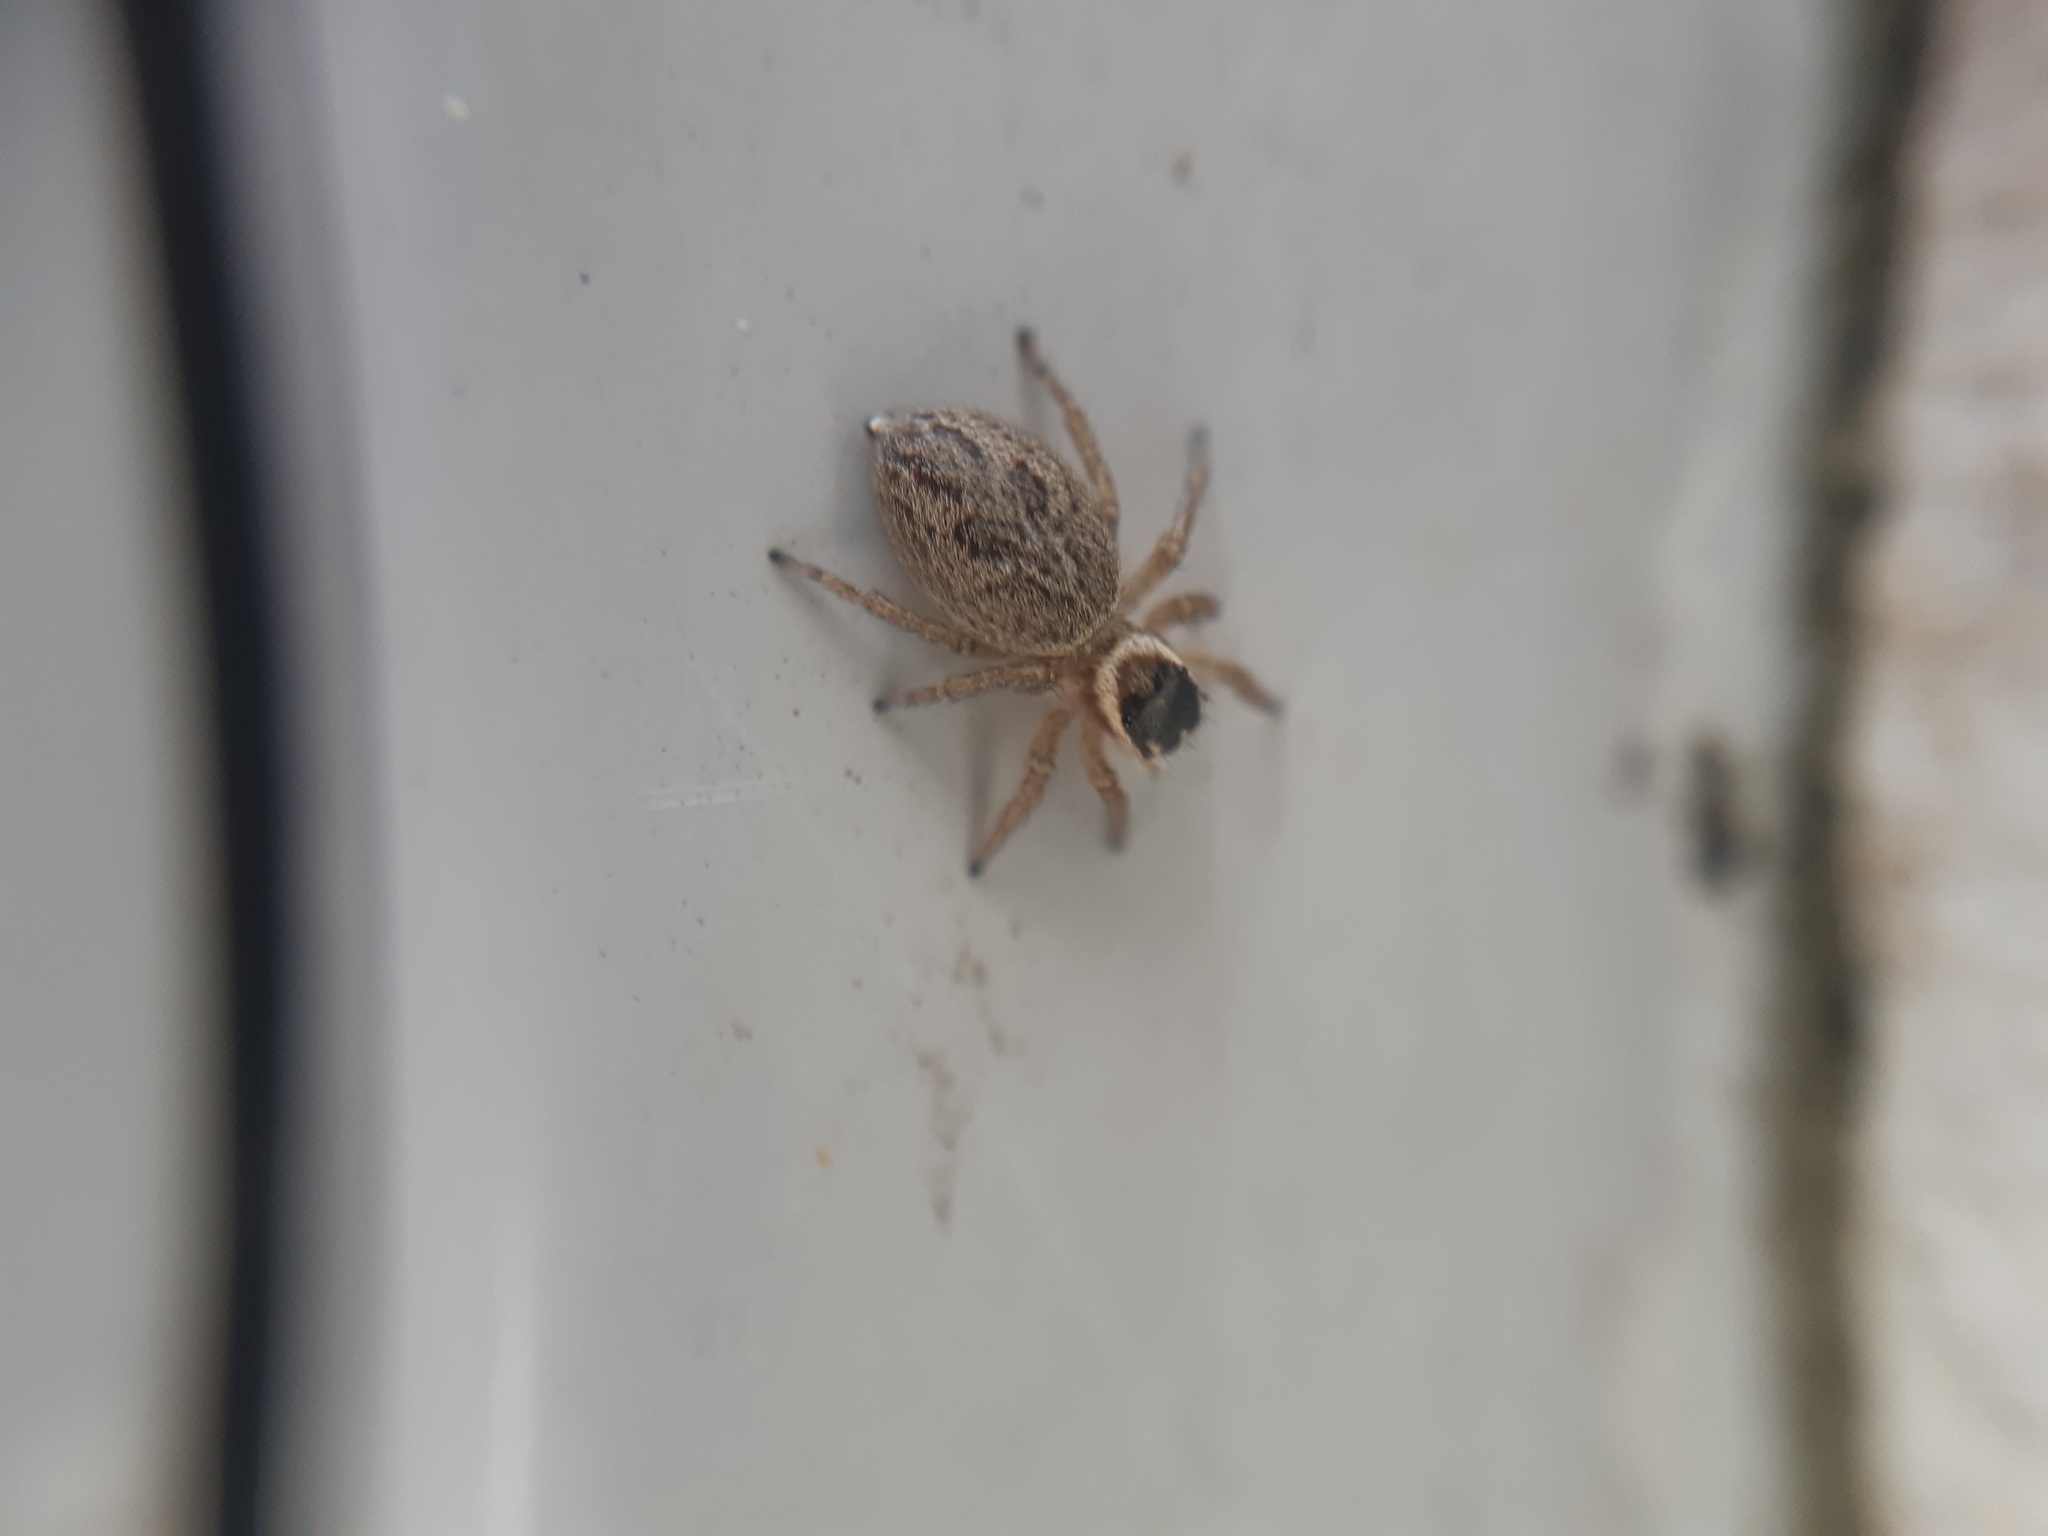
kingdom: Animalia
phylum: Arthropoda
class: Arachnida
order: Araneae
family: Salticidae
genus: Maratus
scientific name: Maratus griseus
